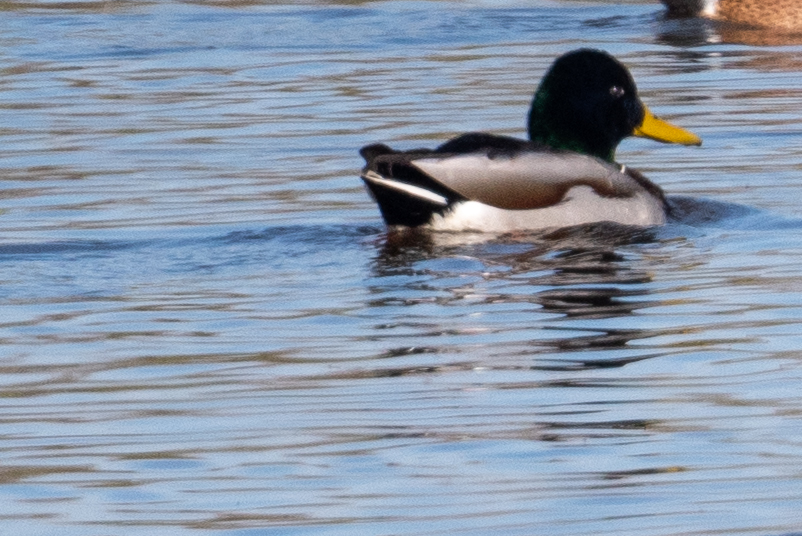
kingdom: Animalia
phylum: Chordata
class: Aves
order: Anseriformes
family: Anatidae
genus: Anas
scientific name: Anas platyrhynchos
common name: Mallard
